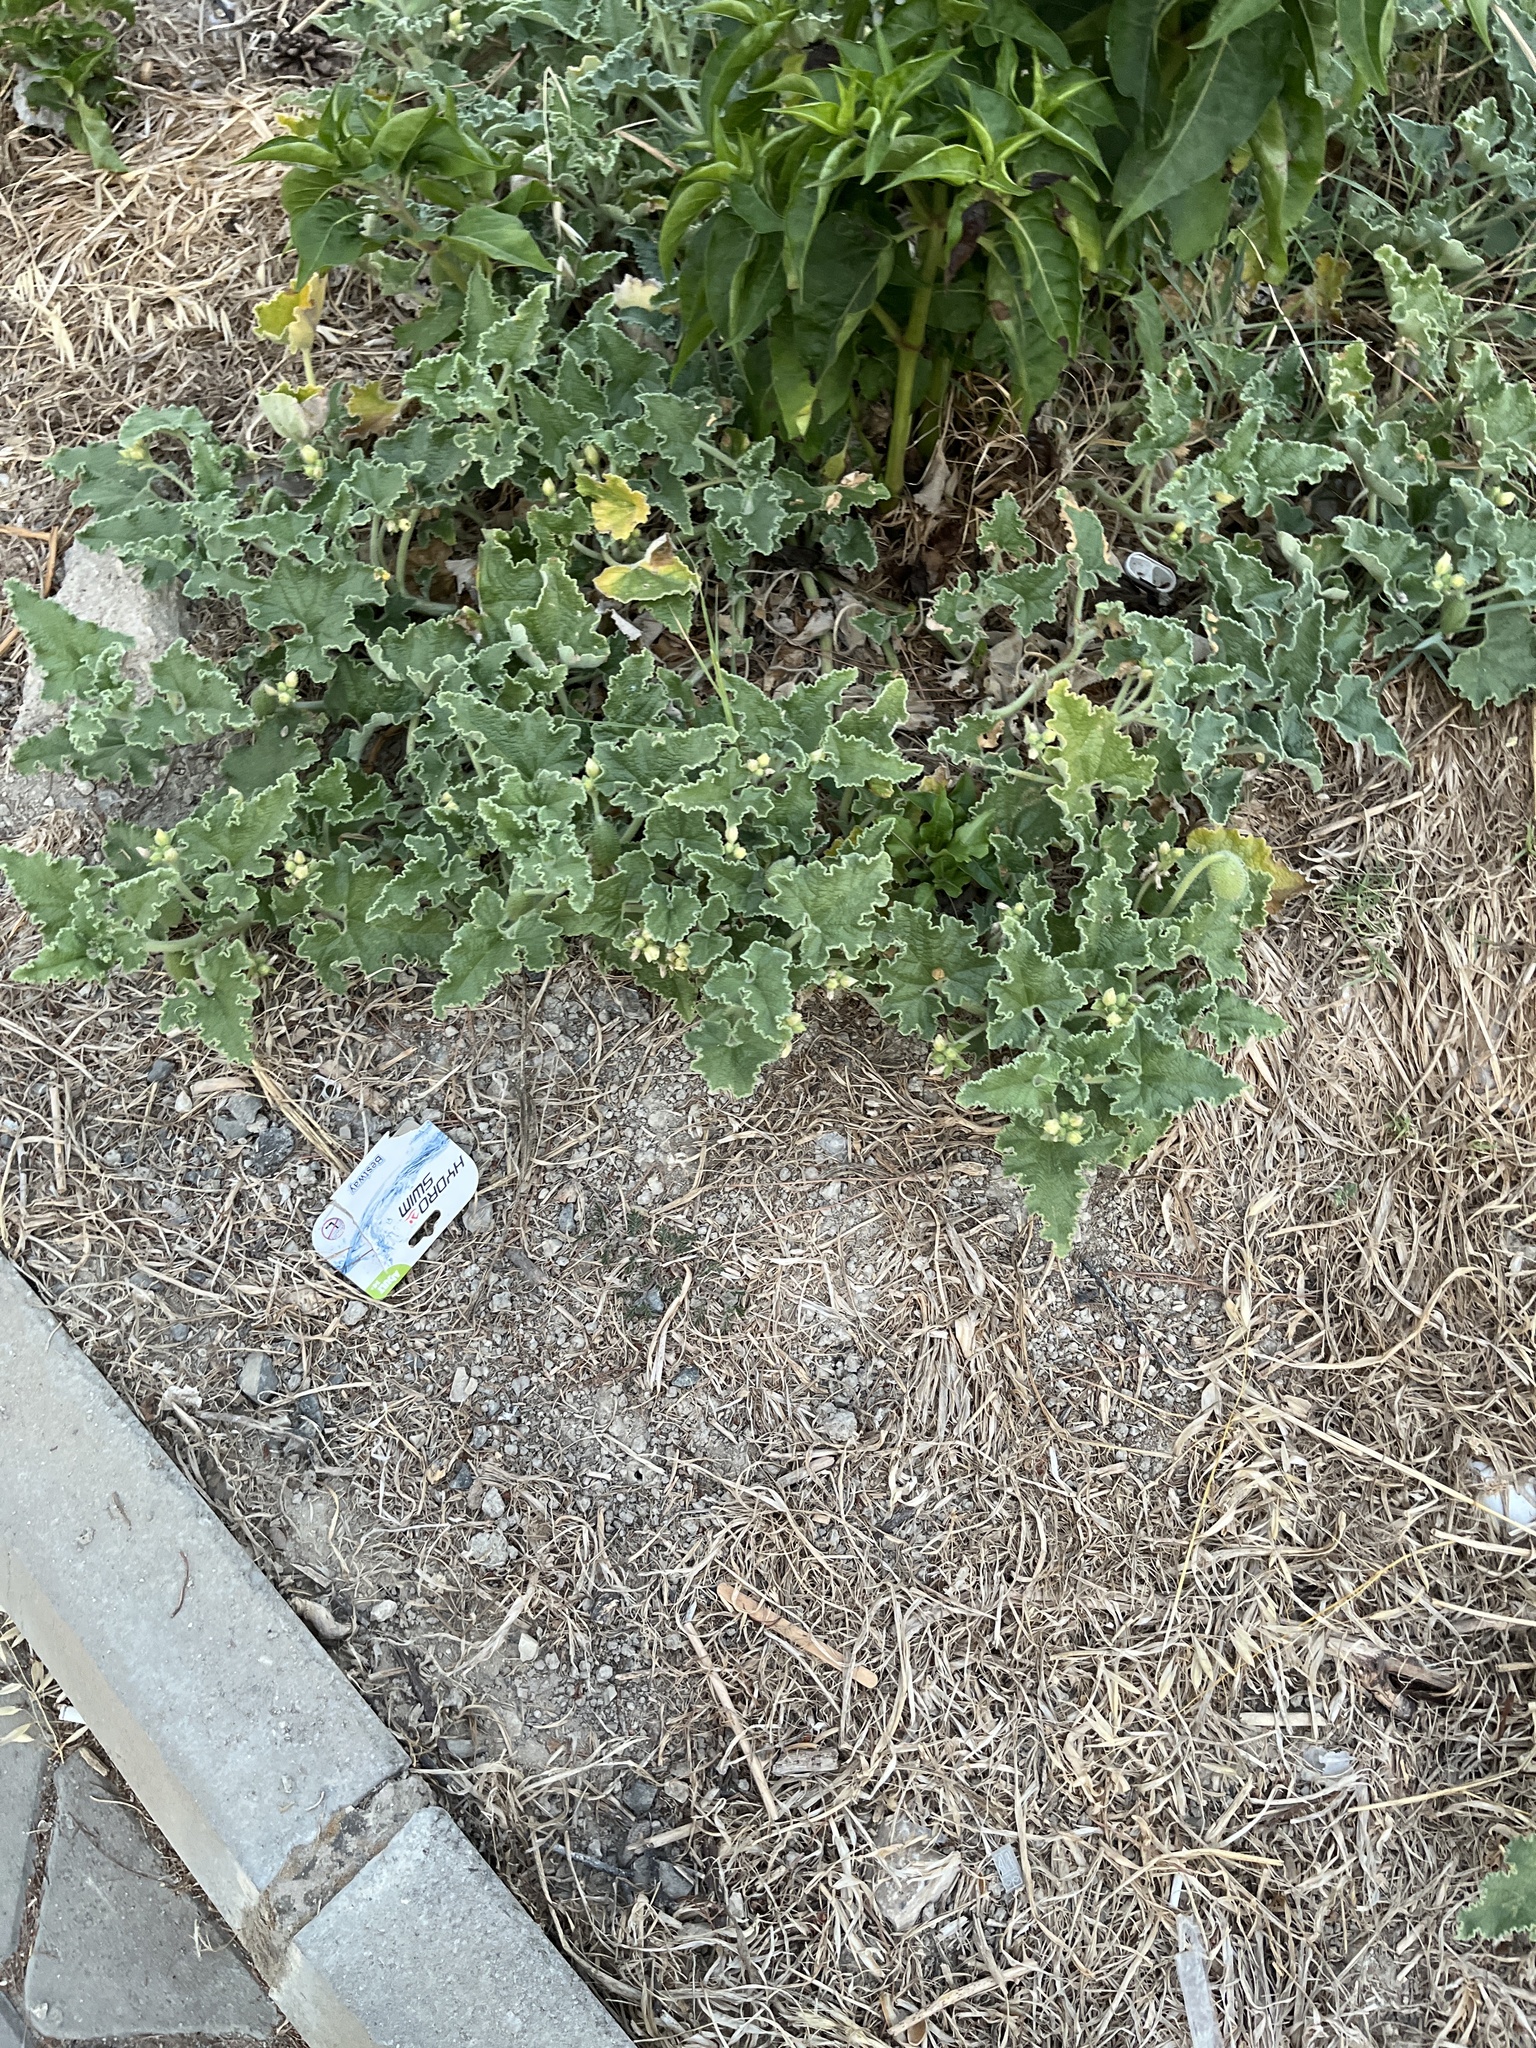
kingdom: Plantae
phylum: Tracheophyta
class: Magnoliopsida
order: Cucurbitales
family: Cucurbitaceae
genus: Ecballium
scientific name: Ecballium elaterium
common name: Squirting cucumber
